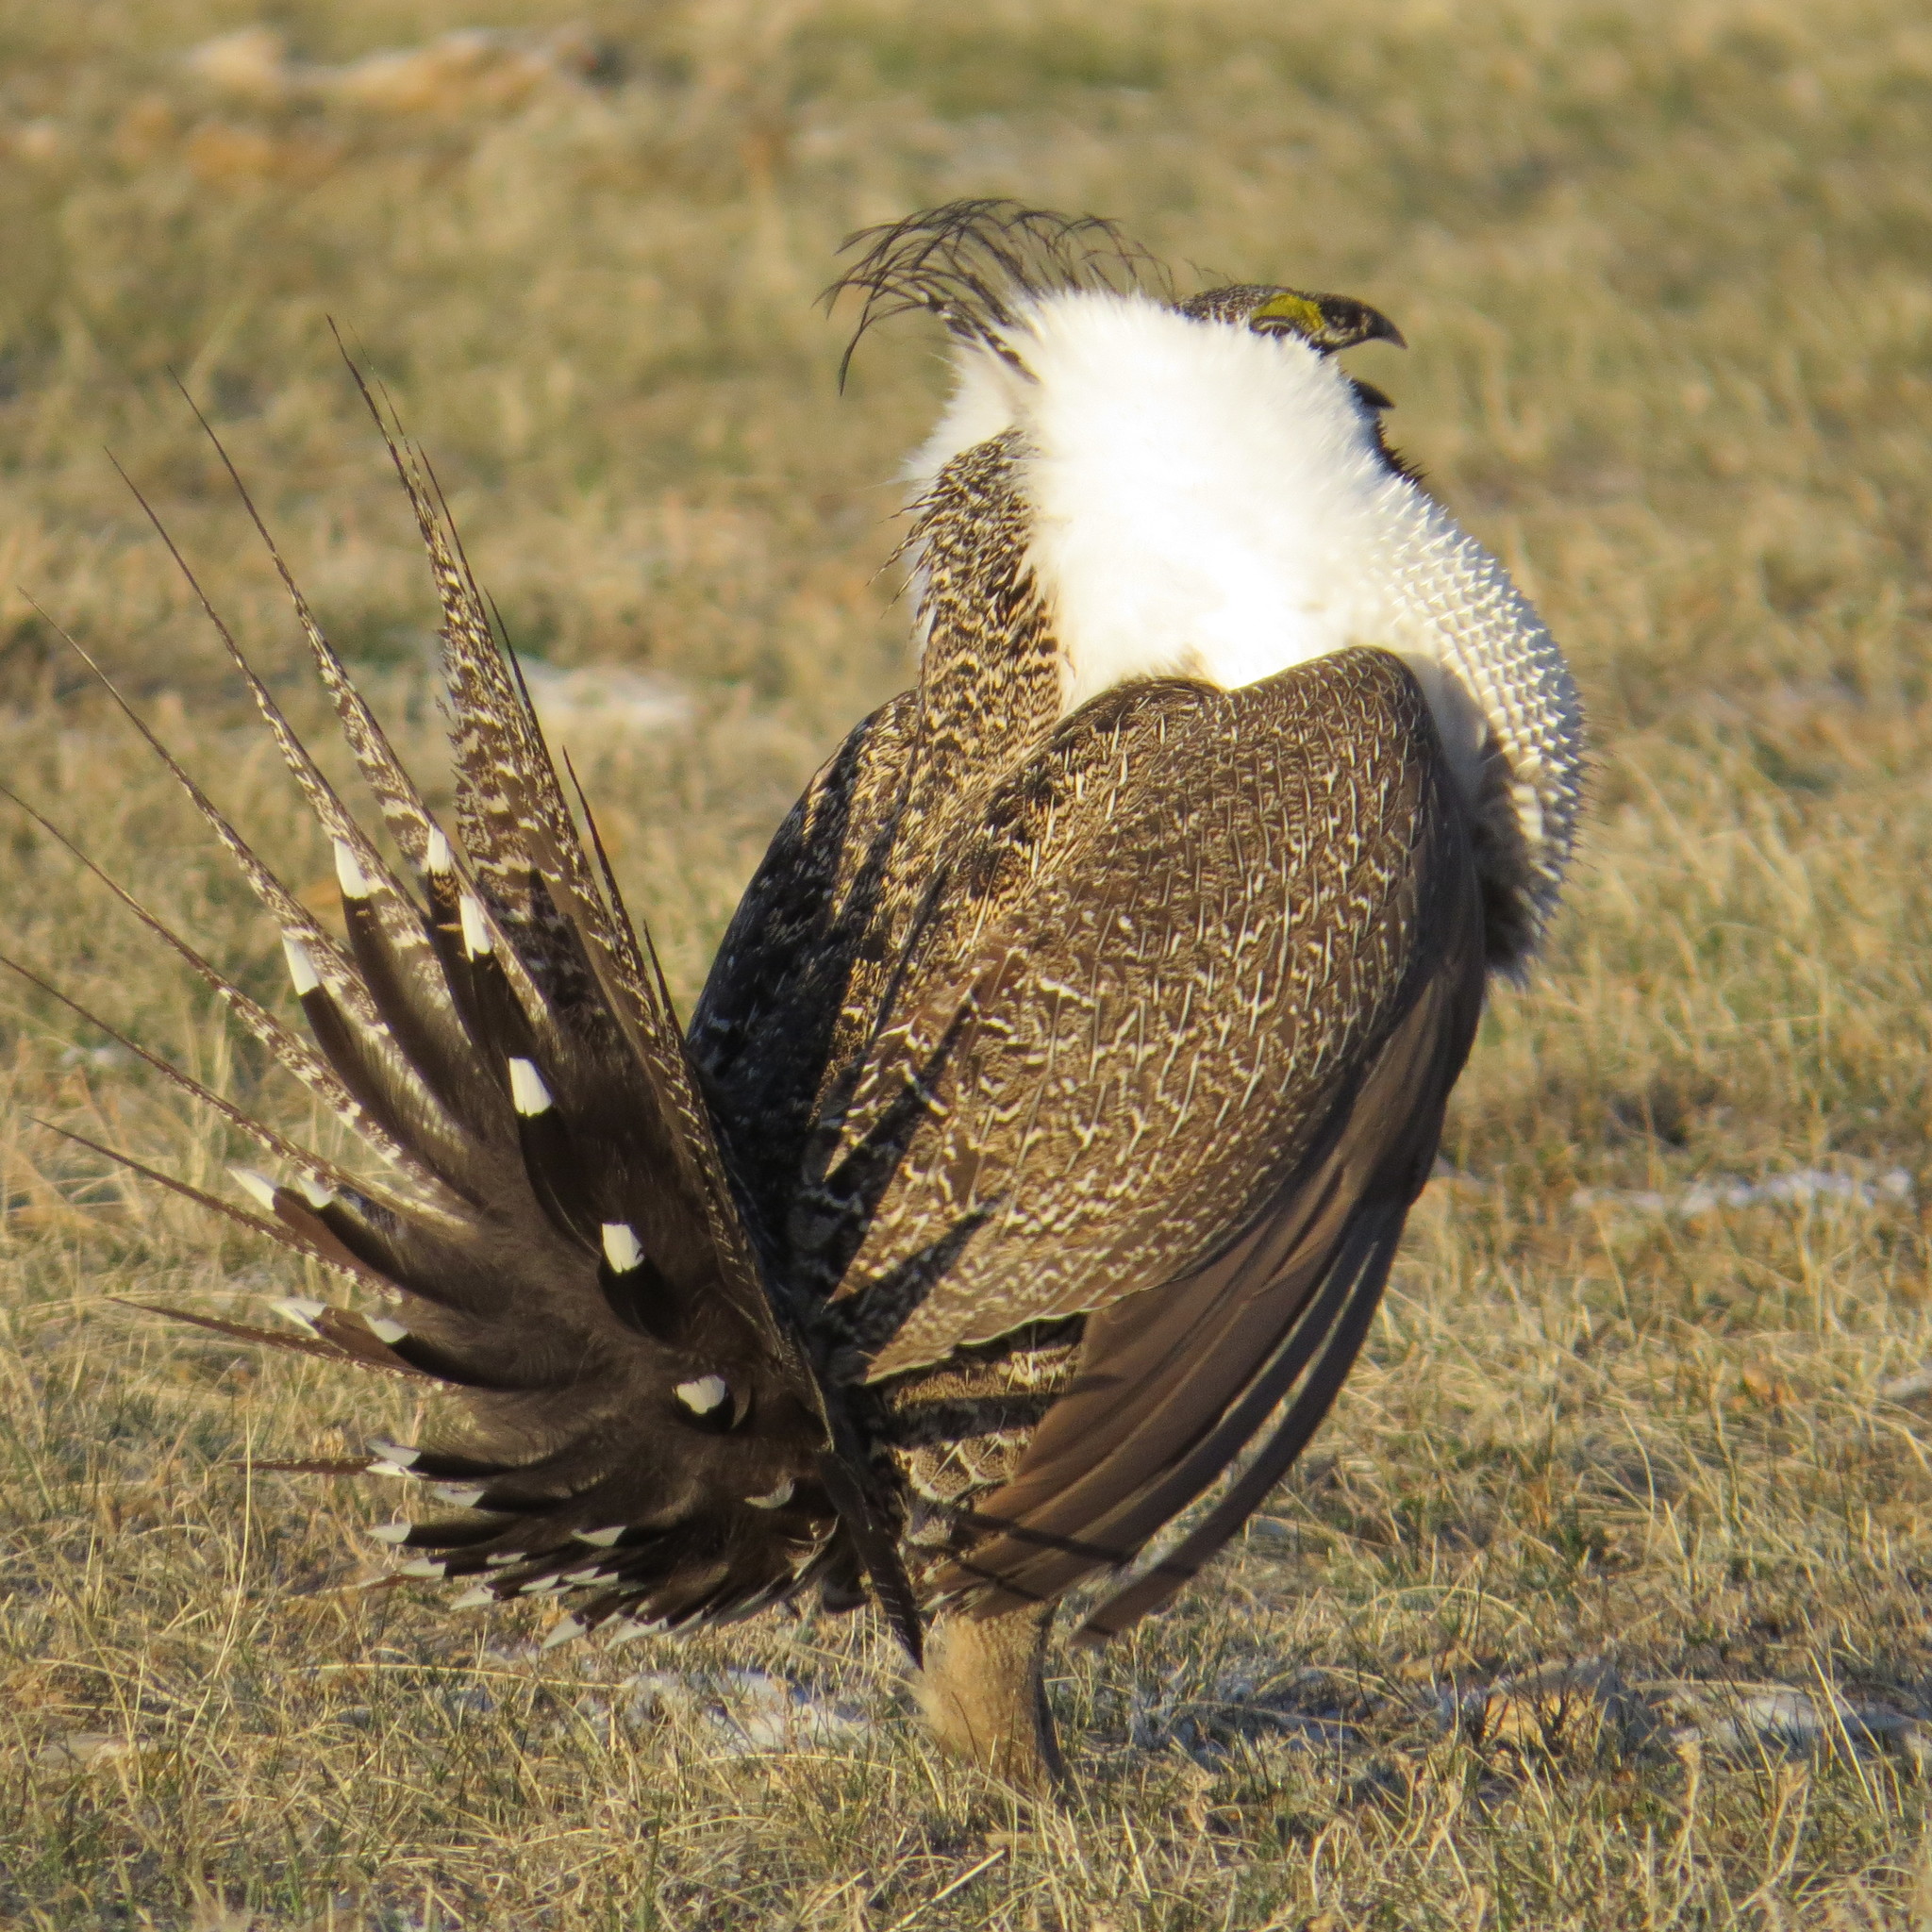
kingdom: Animalia
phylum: Chordata
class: Aves
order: Galliformes
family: Phasianidae
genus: Centrocercus
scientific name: Centrocercus urophasianus
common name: Sage grouse
